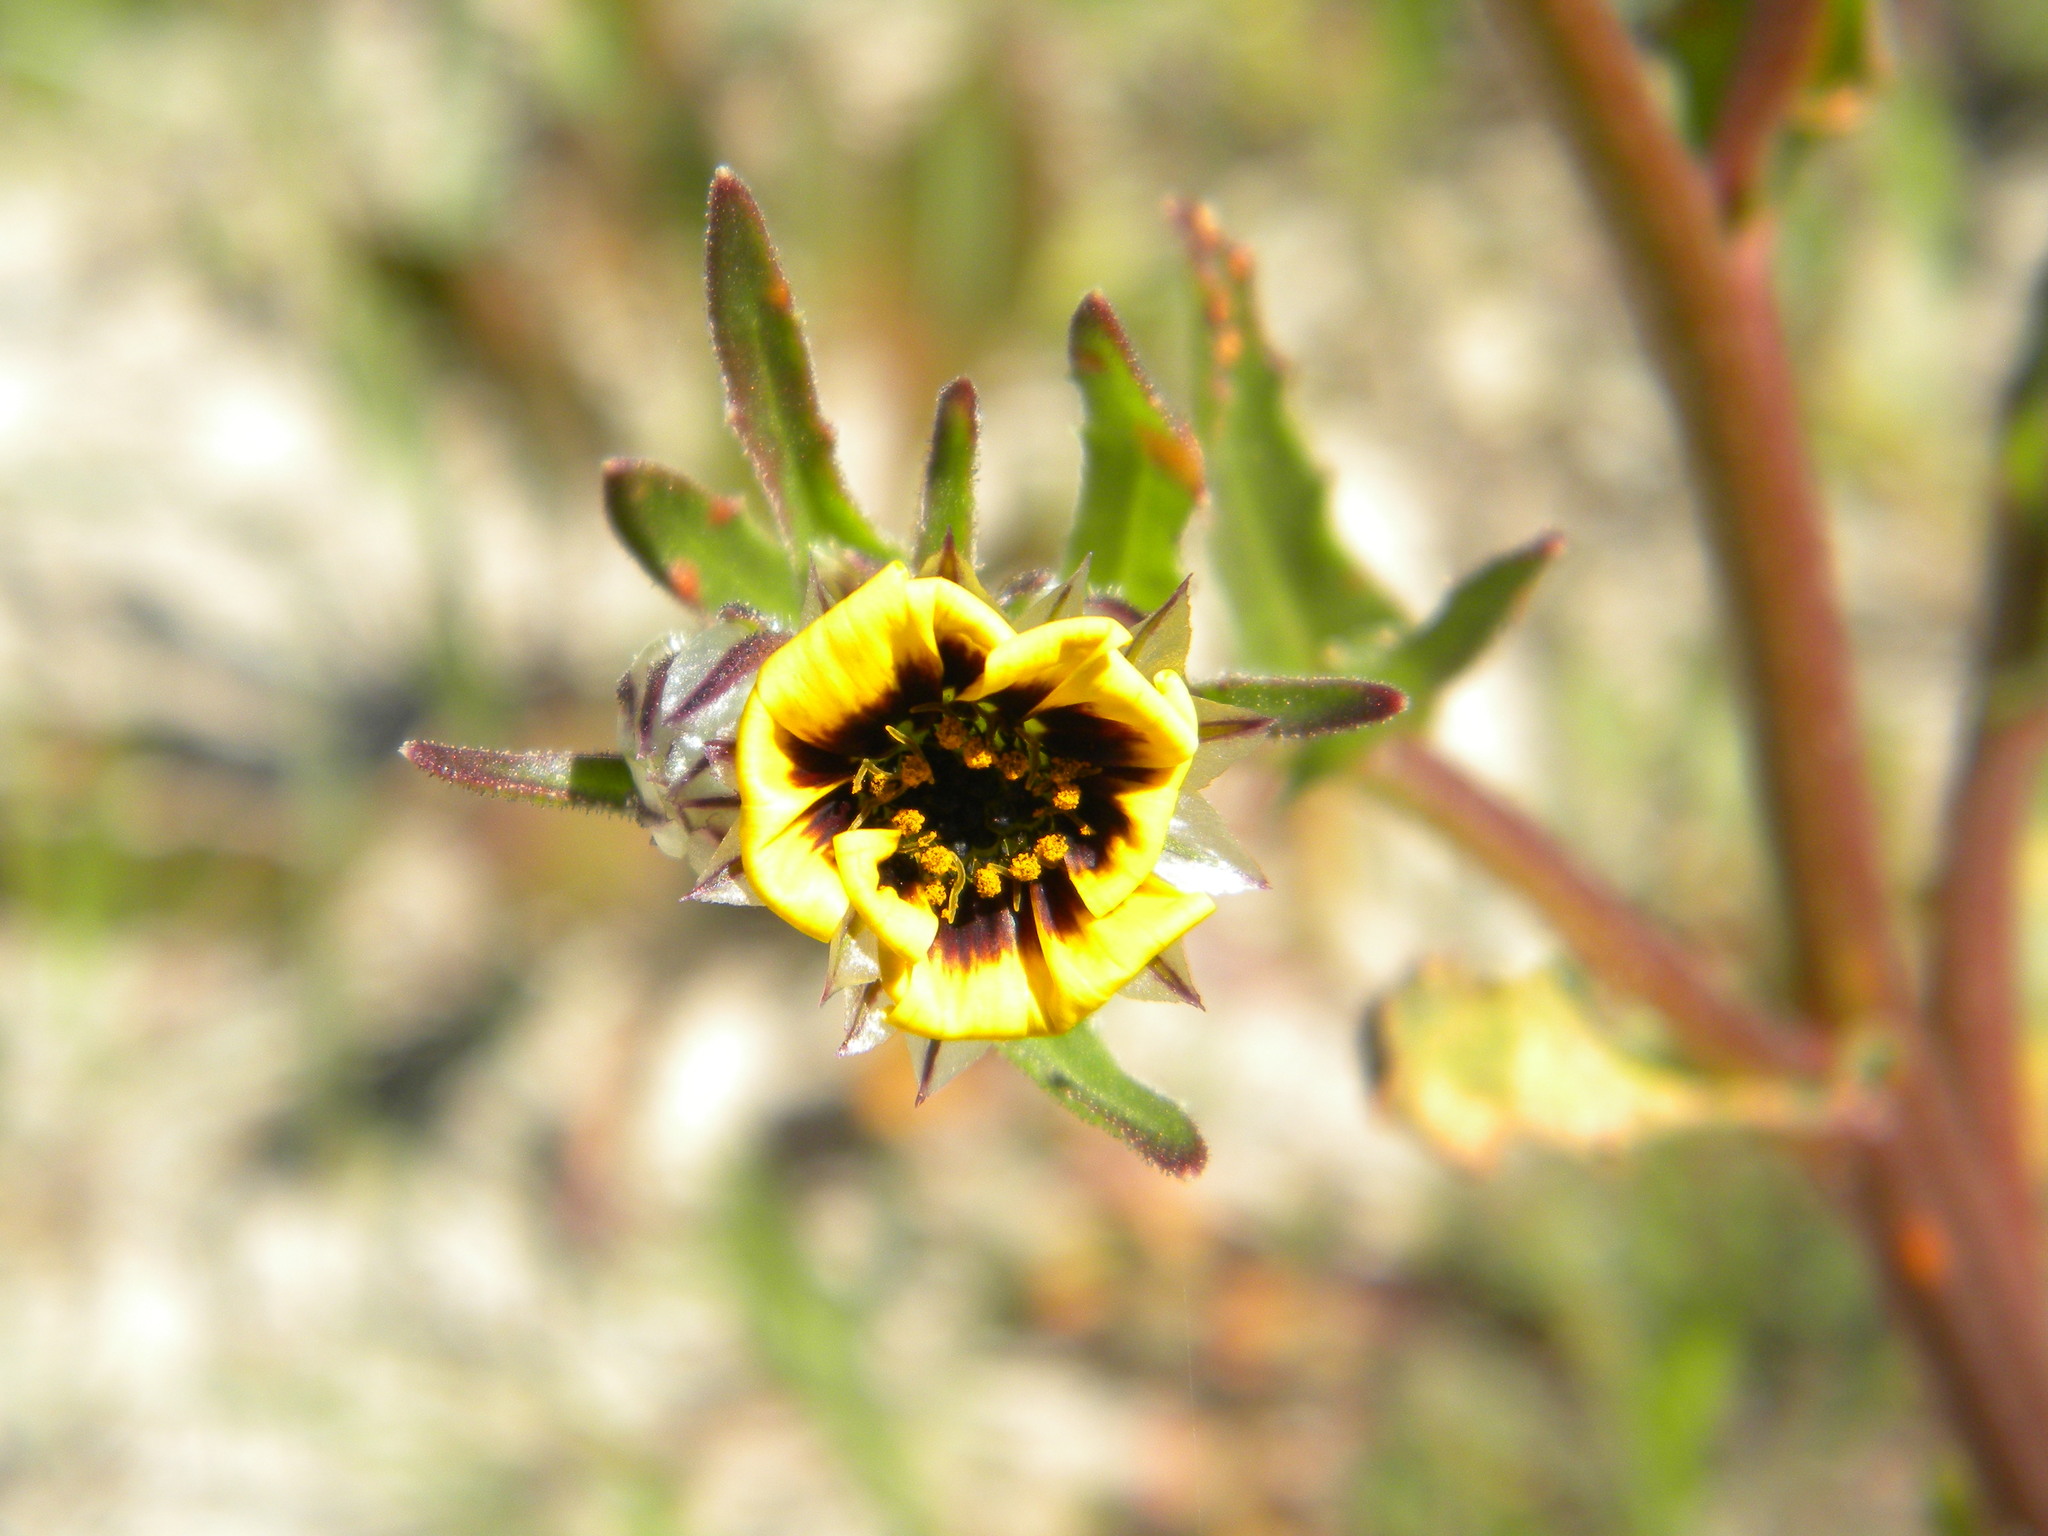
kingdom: Plantae
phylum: Tracheophyta
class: Magnoliopsida
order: Asterales
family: Asteraceae
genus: Osteospermum
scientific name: Osteospermum monstrosum
